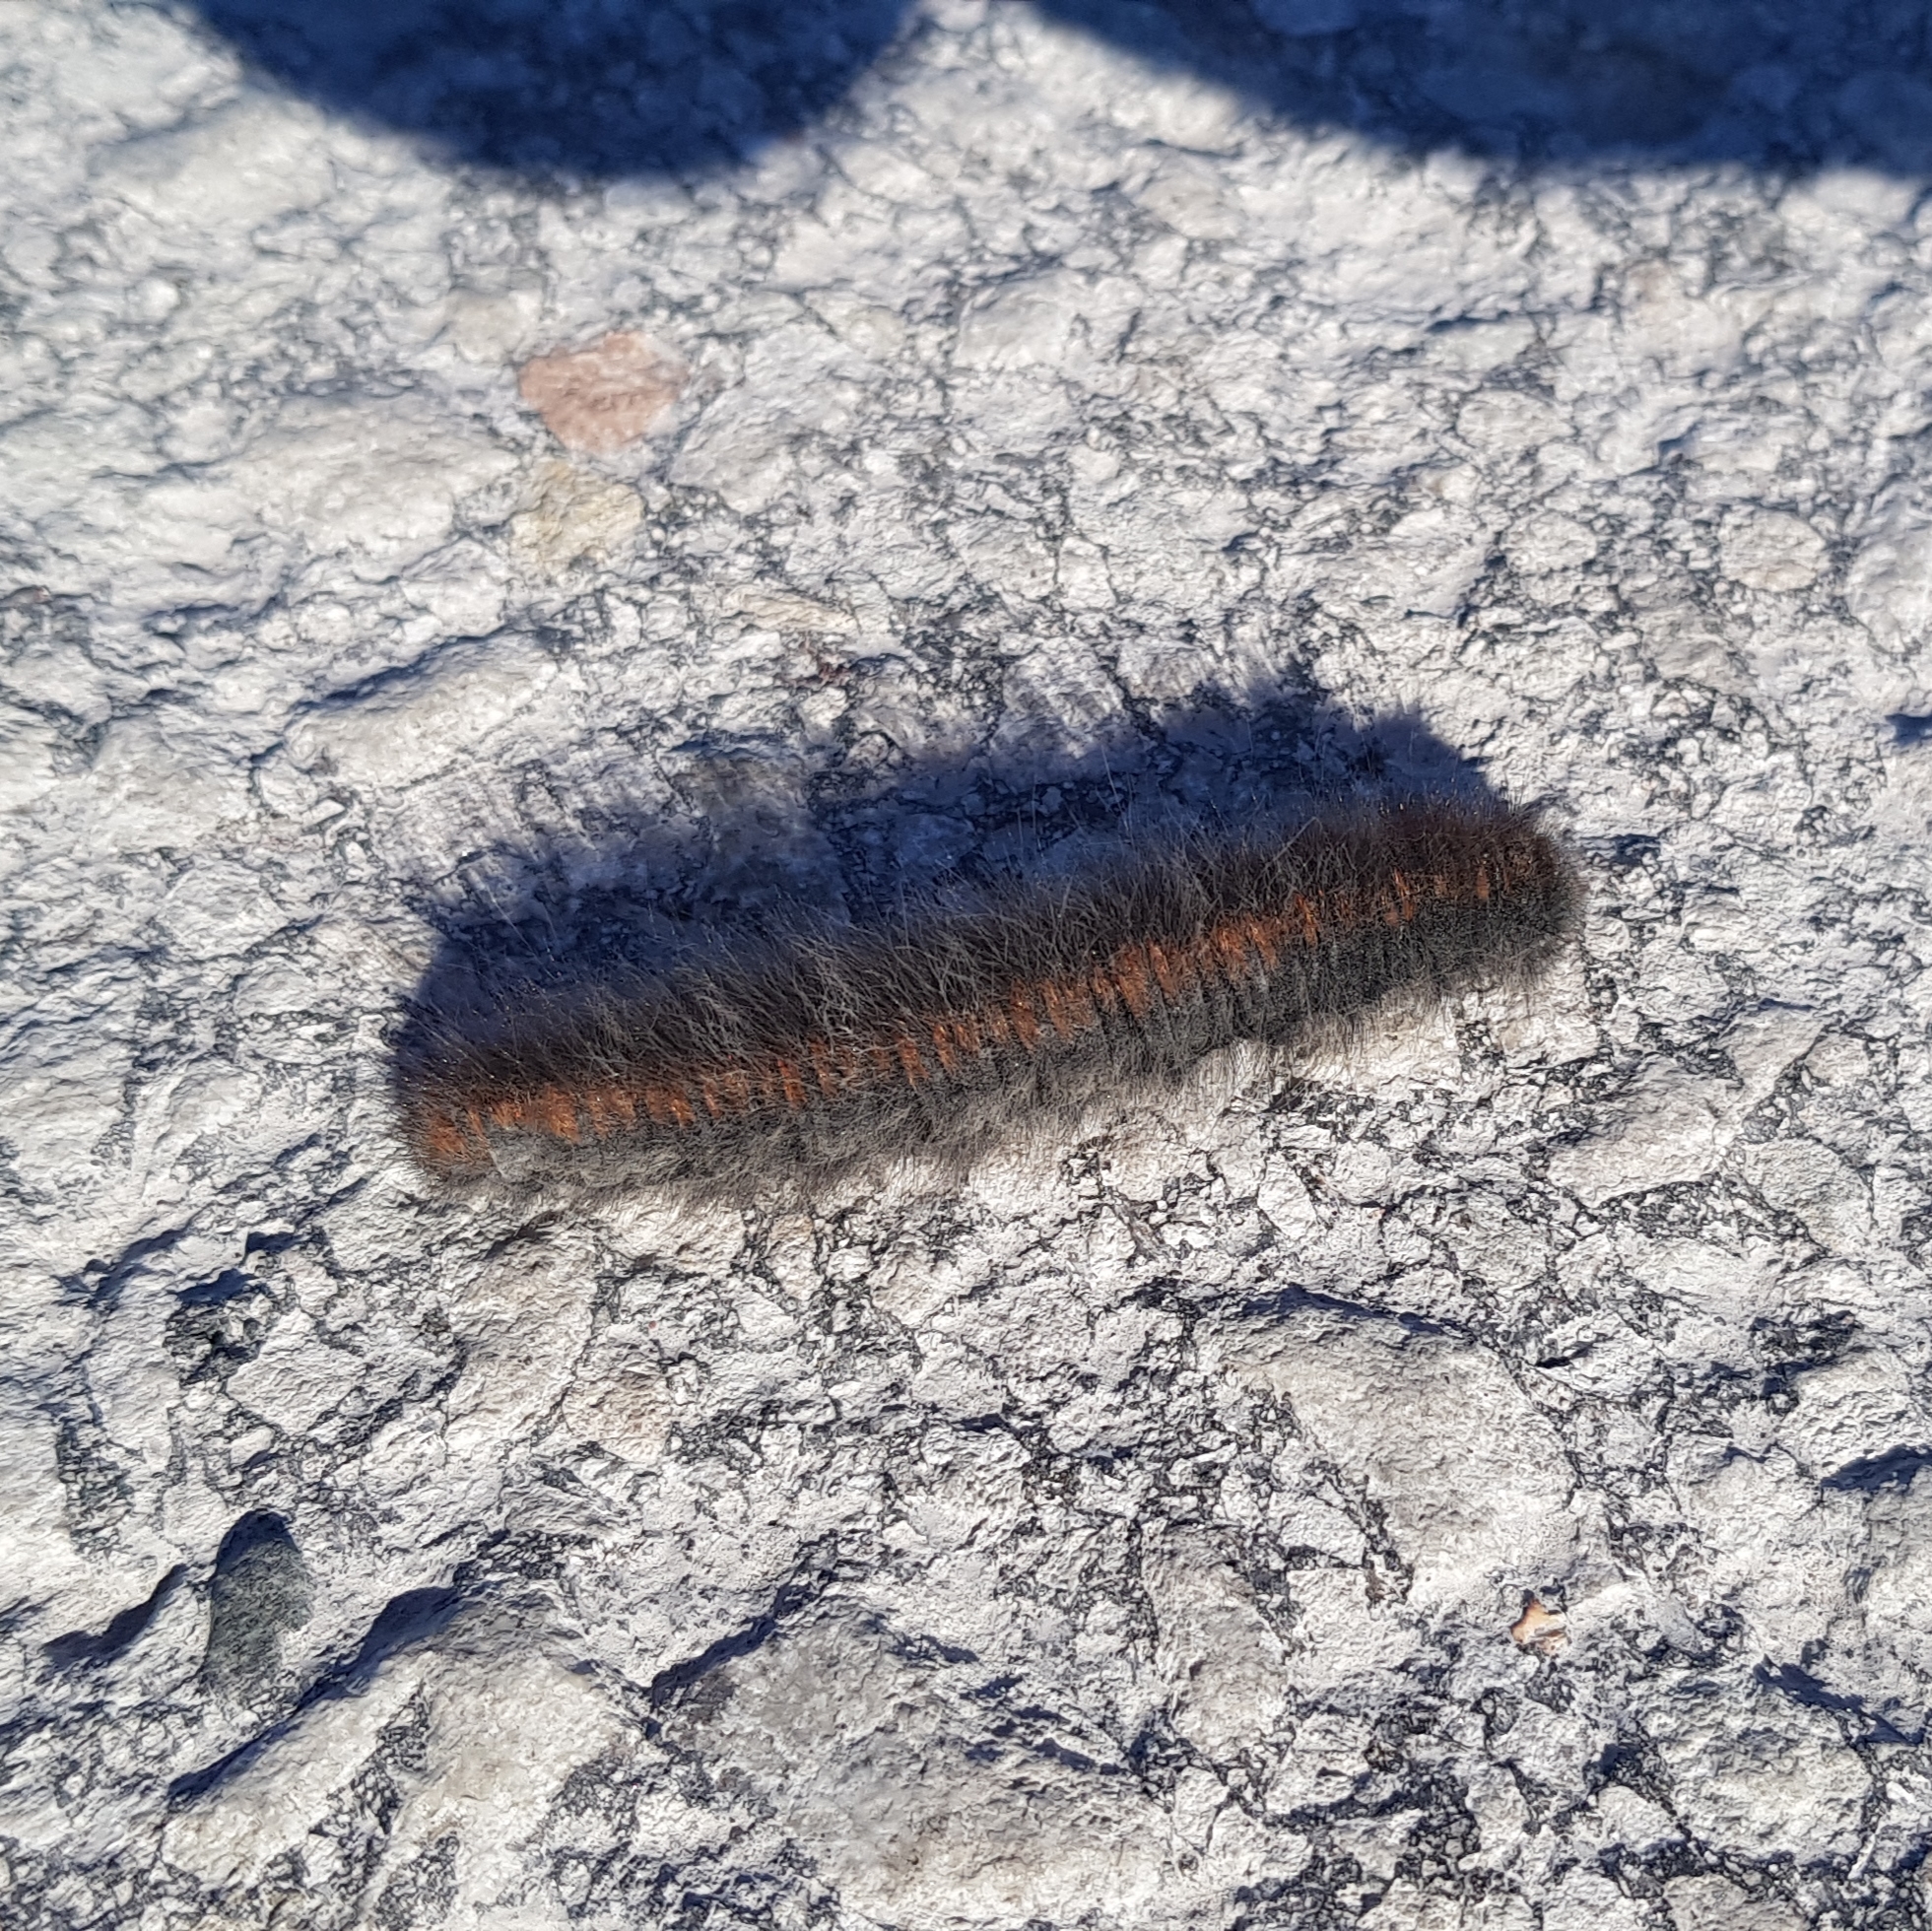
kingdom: Animalia
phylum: Arthropoda
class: Insecta
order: Lepidoptera
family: Lasiocampidae
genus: Macrothylacia
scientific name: Macrothylacia rubi
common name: Fox moth
